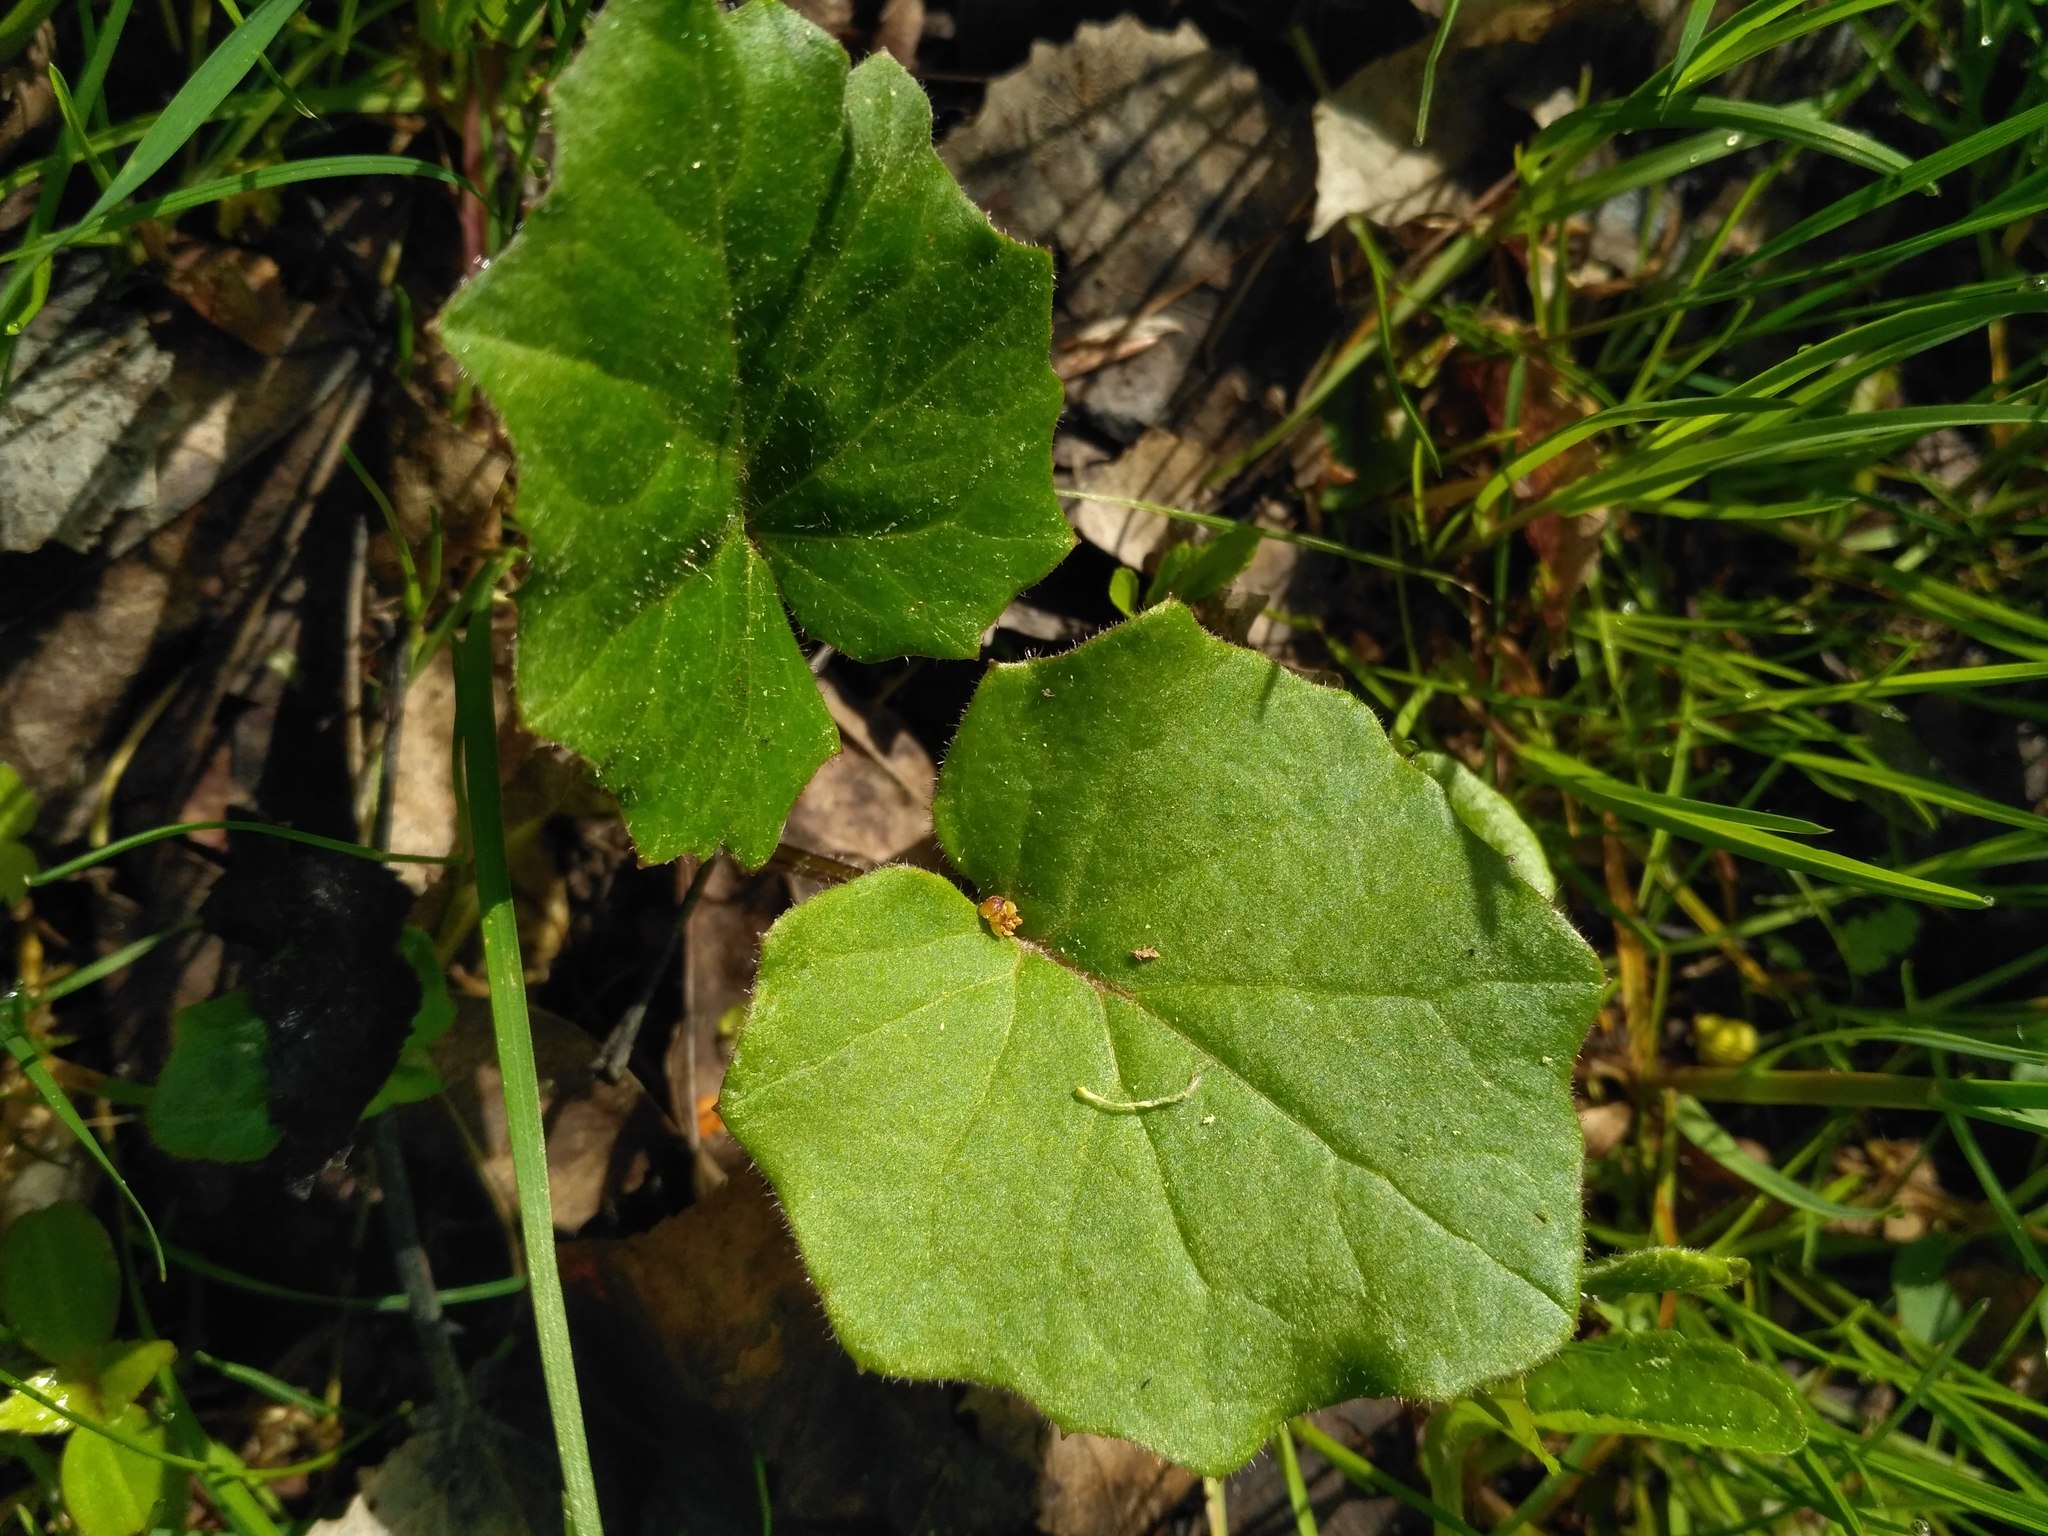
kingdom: Plantae
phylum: Tracheophyta
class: Magnoliopsida
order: Asterales
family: Asteraceae
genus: Tussilago
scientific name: Tussilago farfara
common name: Coltsfoot
